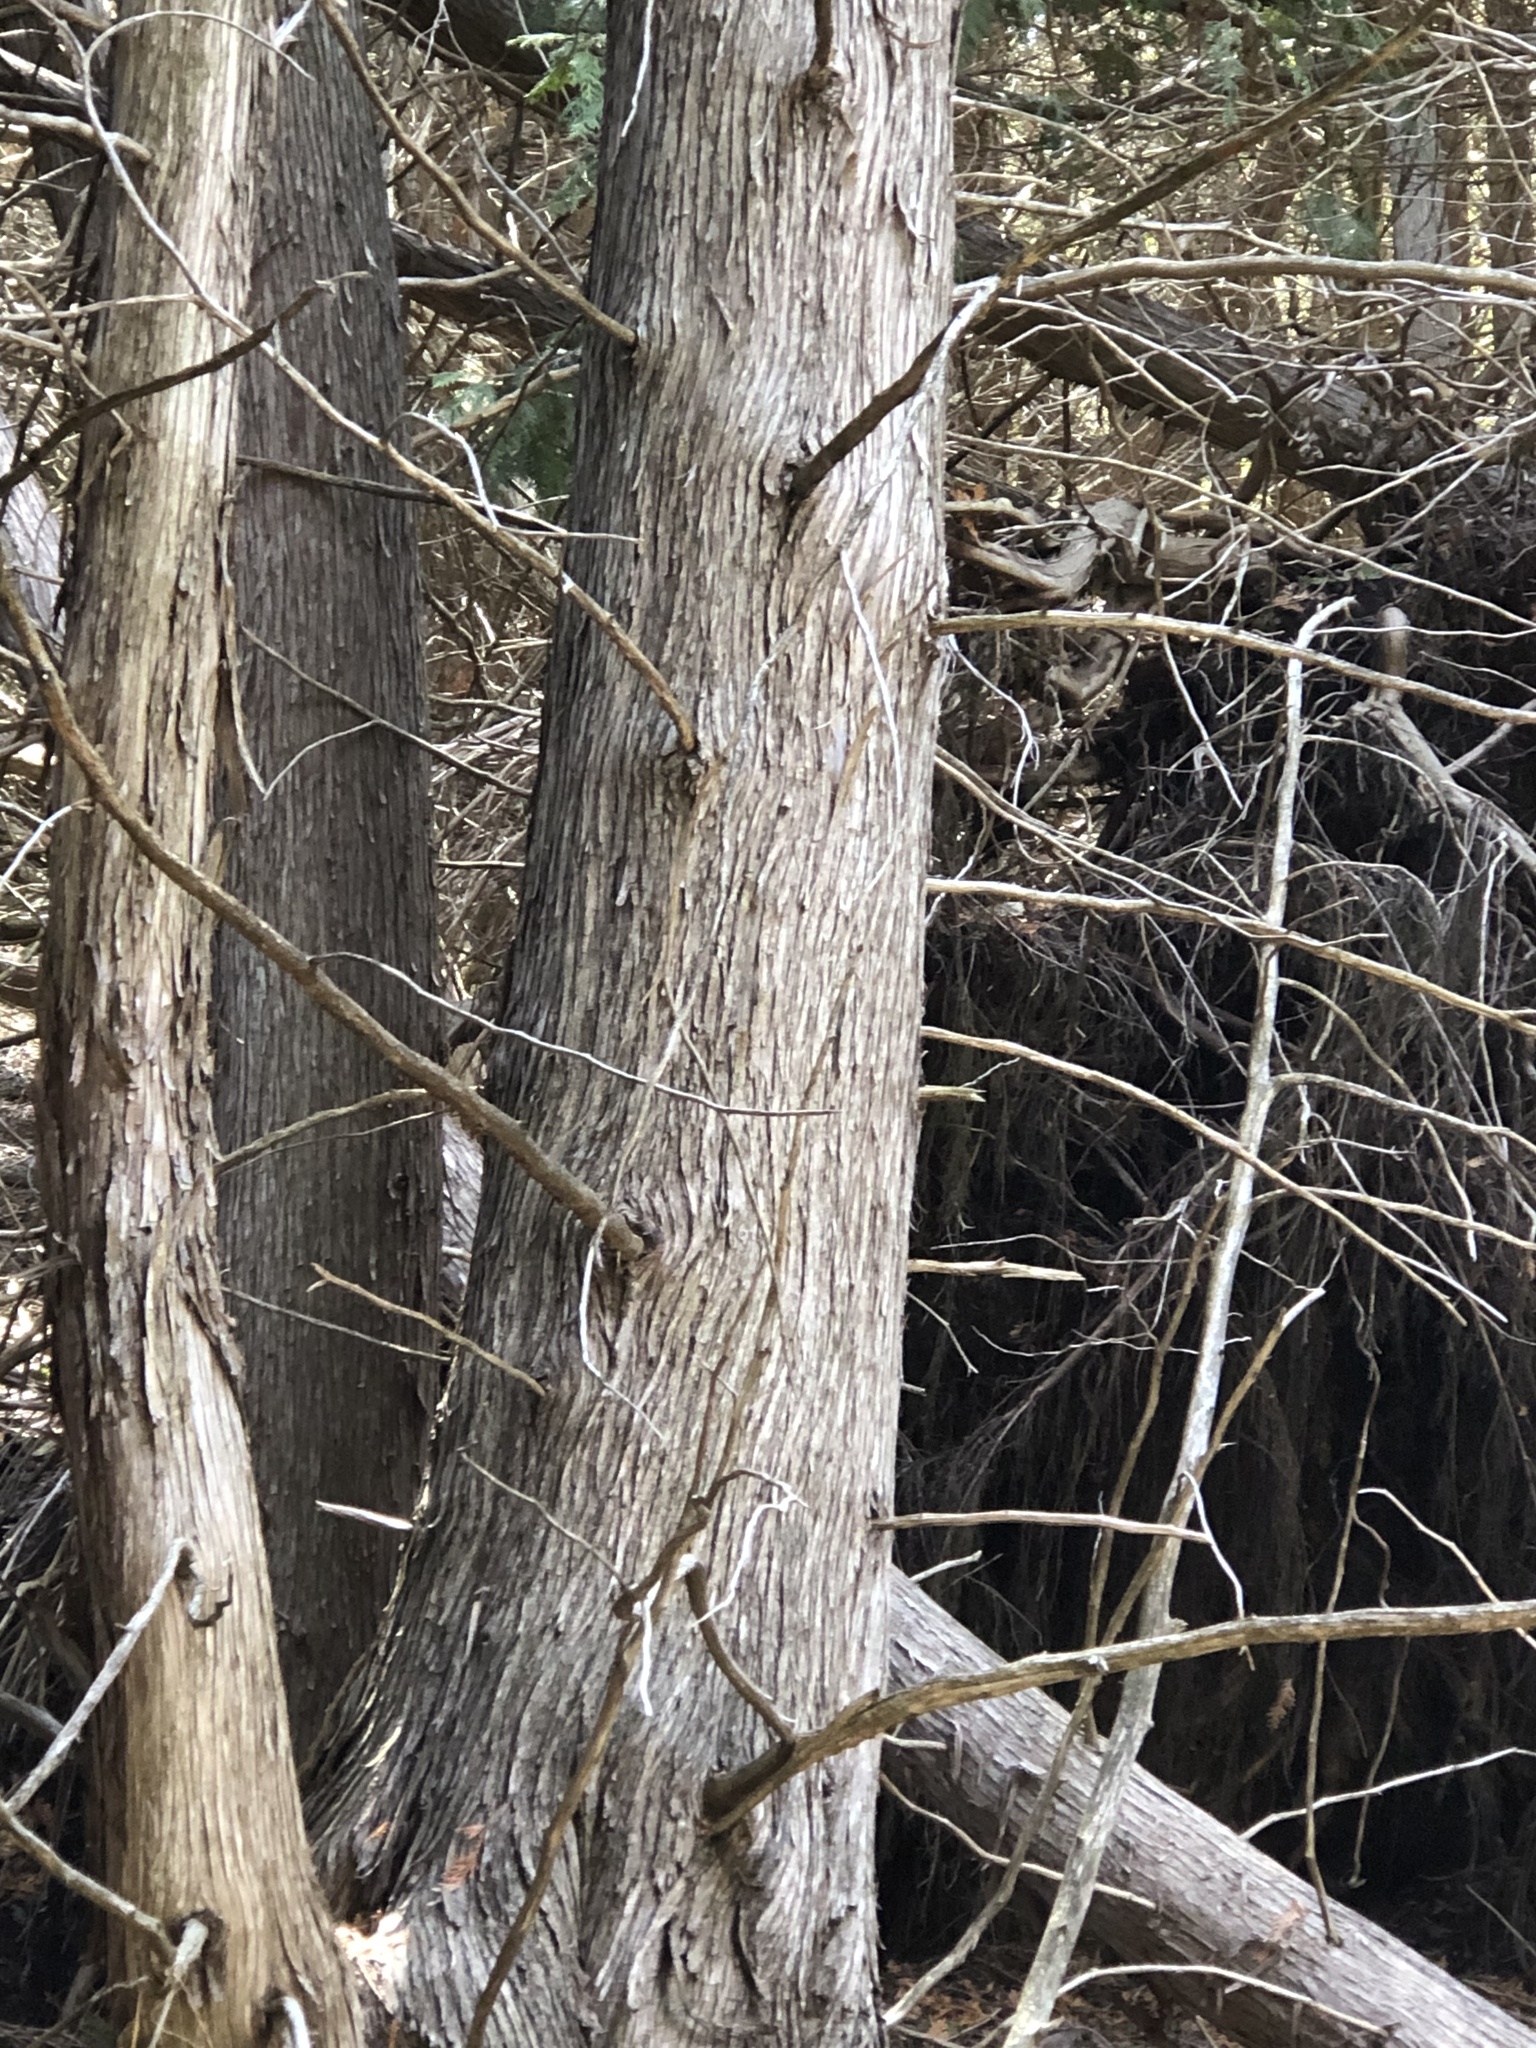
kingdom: Plantae
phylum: Tracheophyta
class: Pinopsida
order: Pinales
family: Cupressaceae
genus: Thuja
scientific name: Thuja occidentalis
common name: Northern white-cedar
